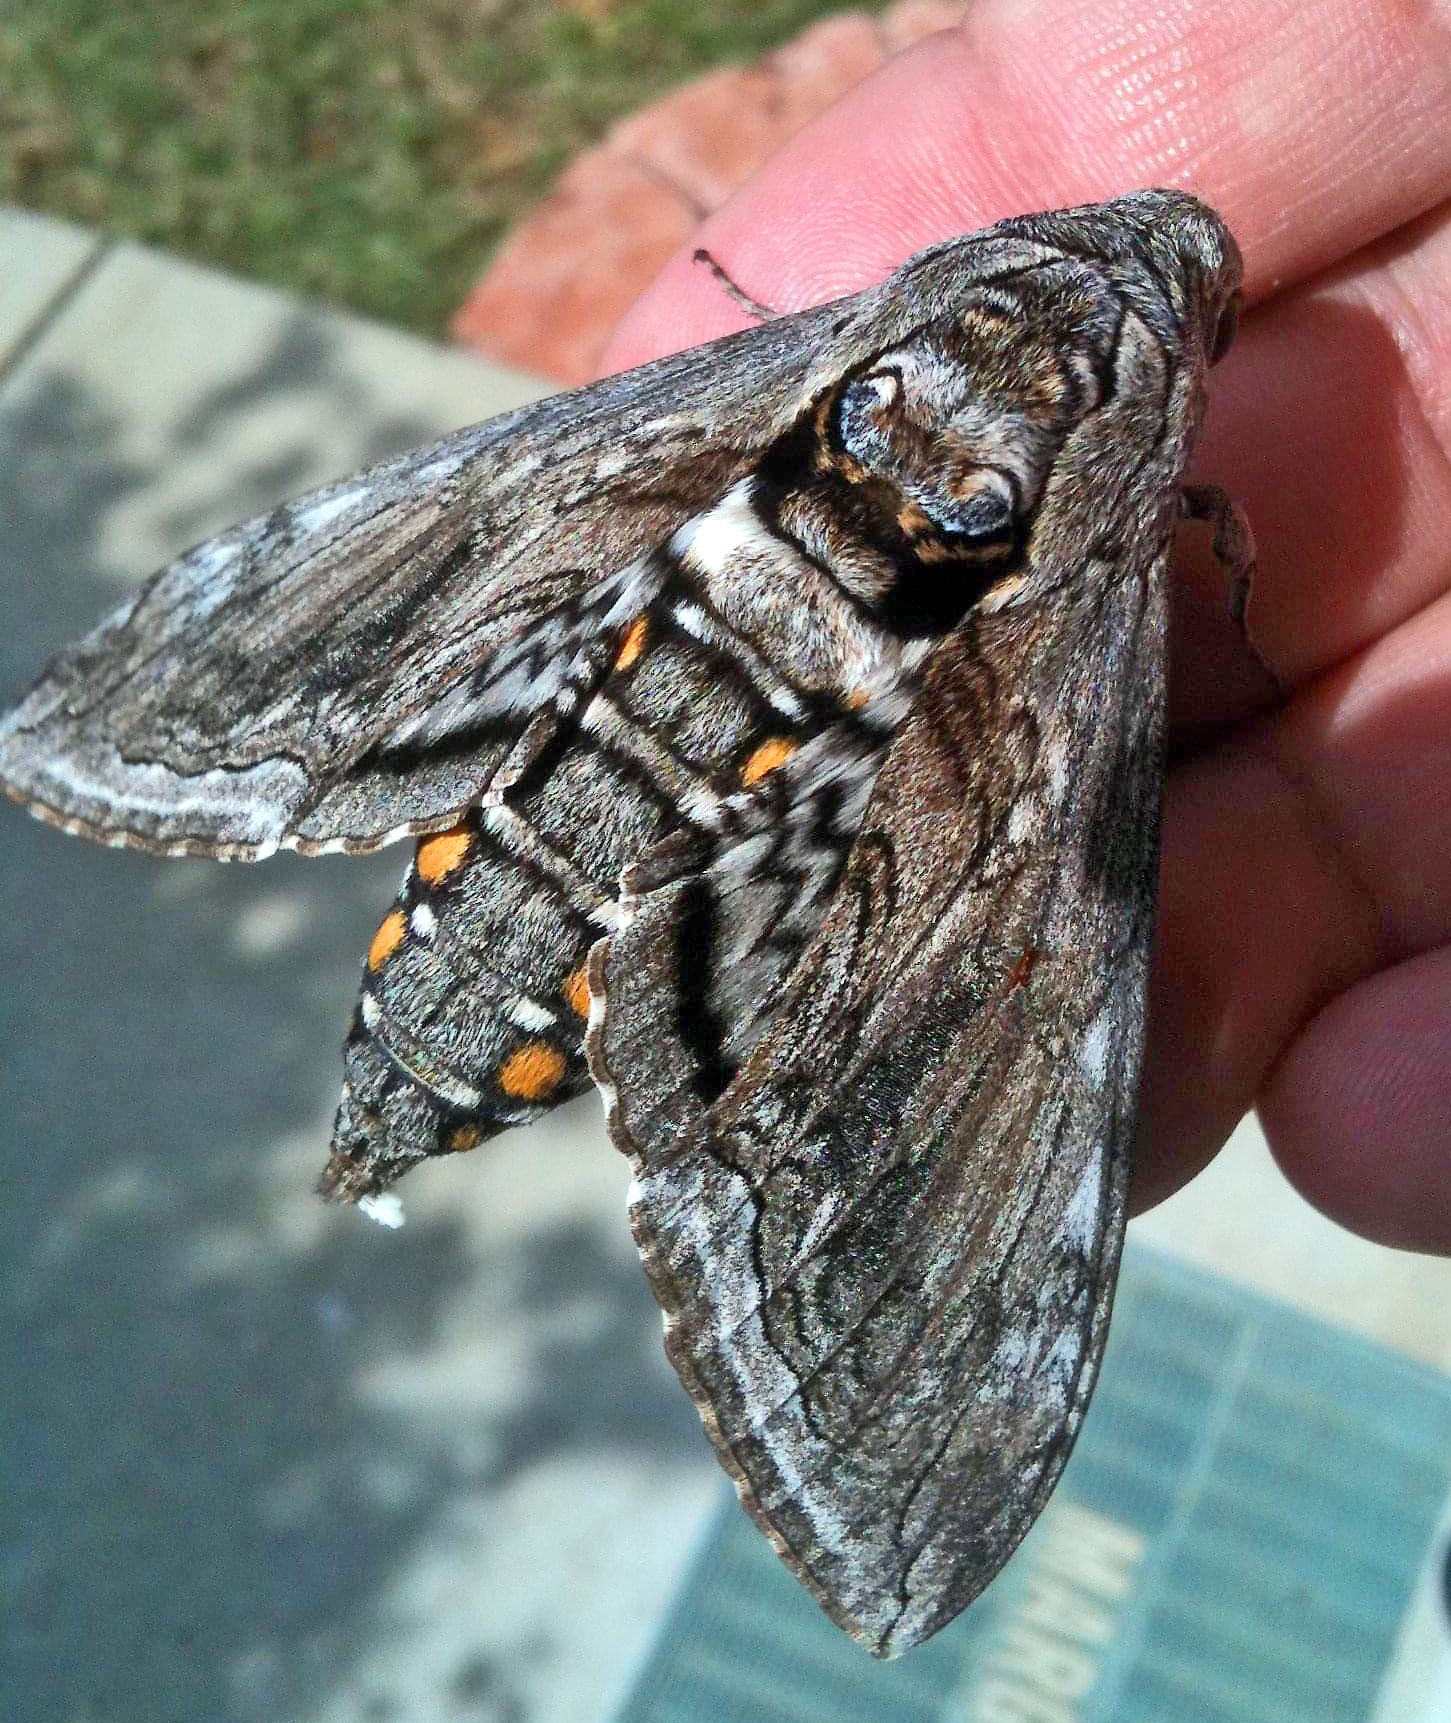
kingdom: Animalia
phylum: Arthropoda
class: Insecta
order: Lepidoptera
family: Sphingidae
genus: Manduca
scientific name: Manduca quinquemaculatus
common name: Five-spotted hawk-moth
